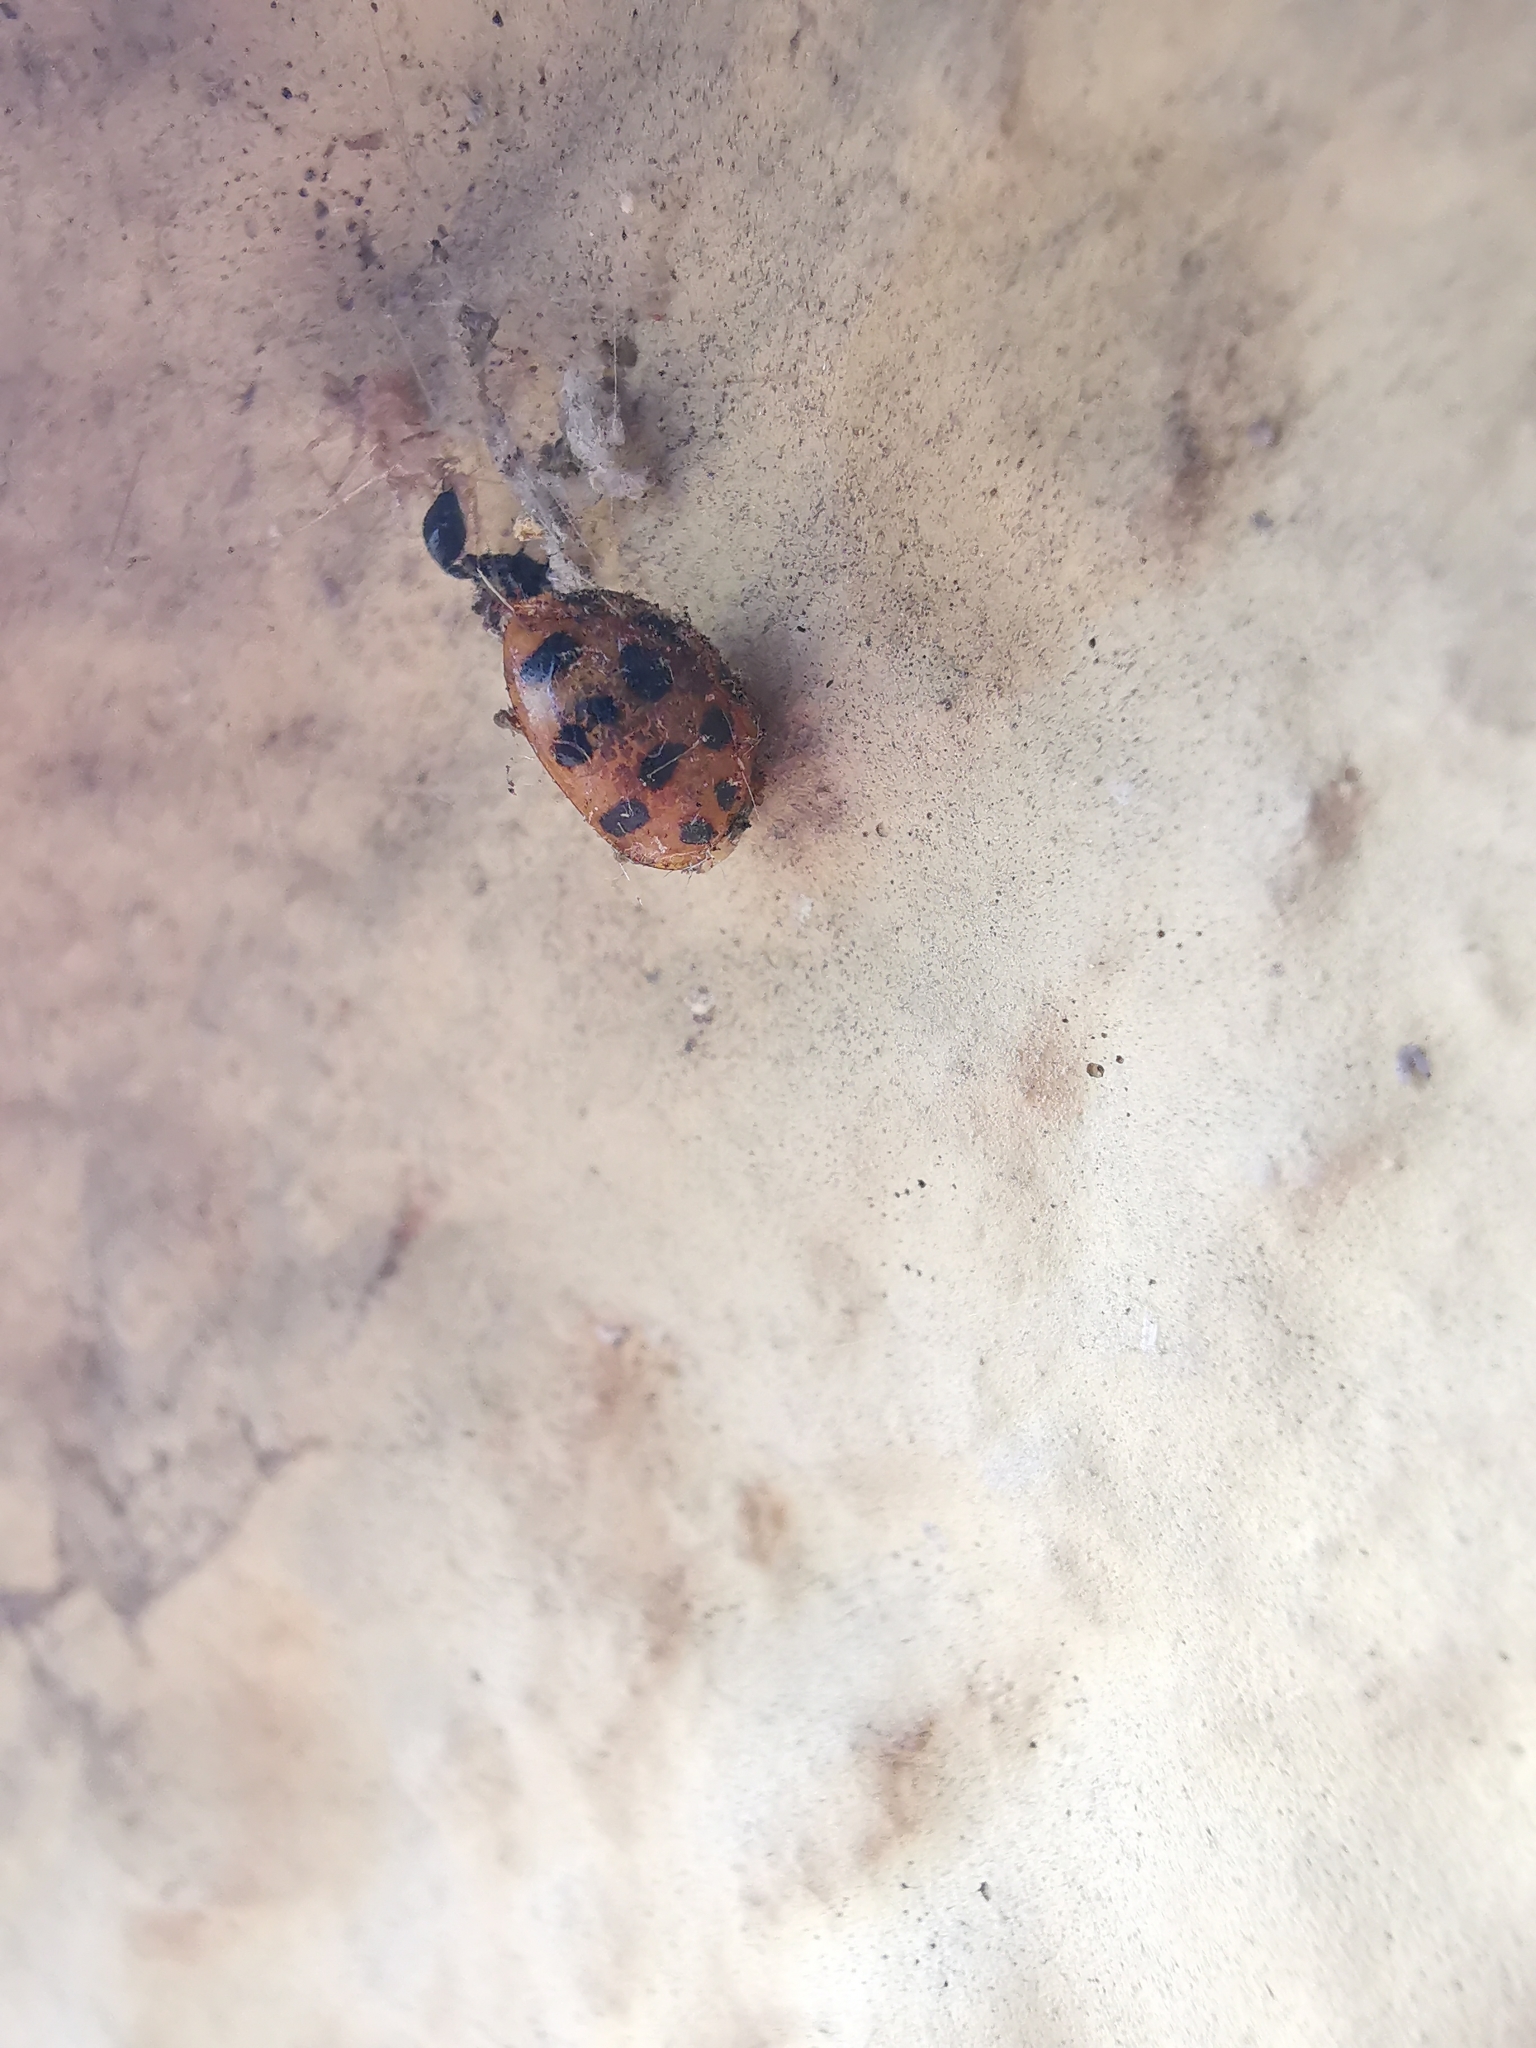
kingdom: Animalia
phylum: Arthropoda
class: Insecta
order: Coleoptera
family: Coccinellidae
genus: Harmonia
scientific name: Harmonia axyridis
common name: Harlequin ladybird
